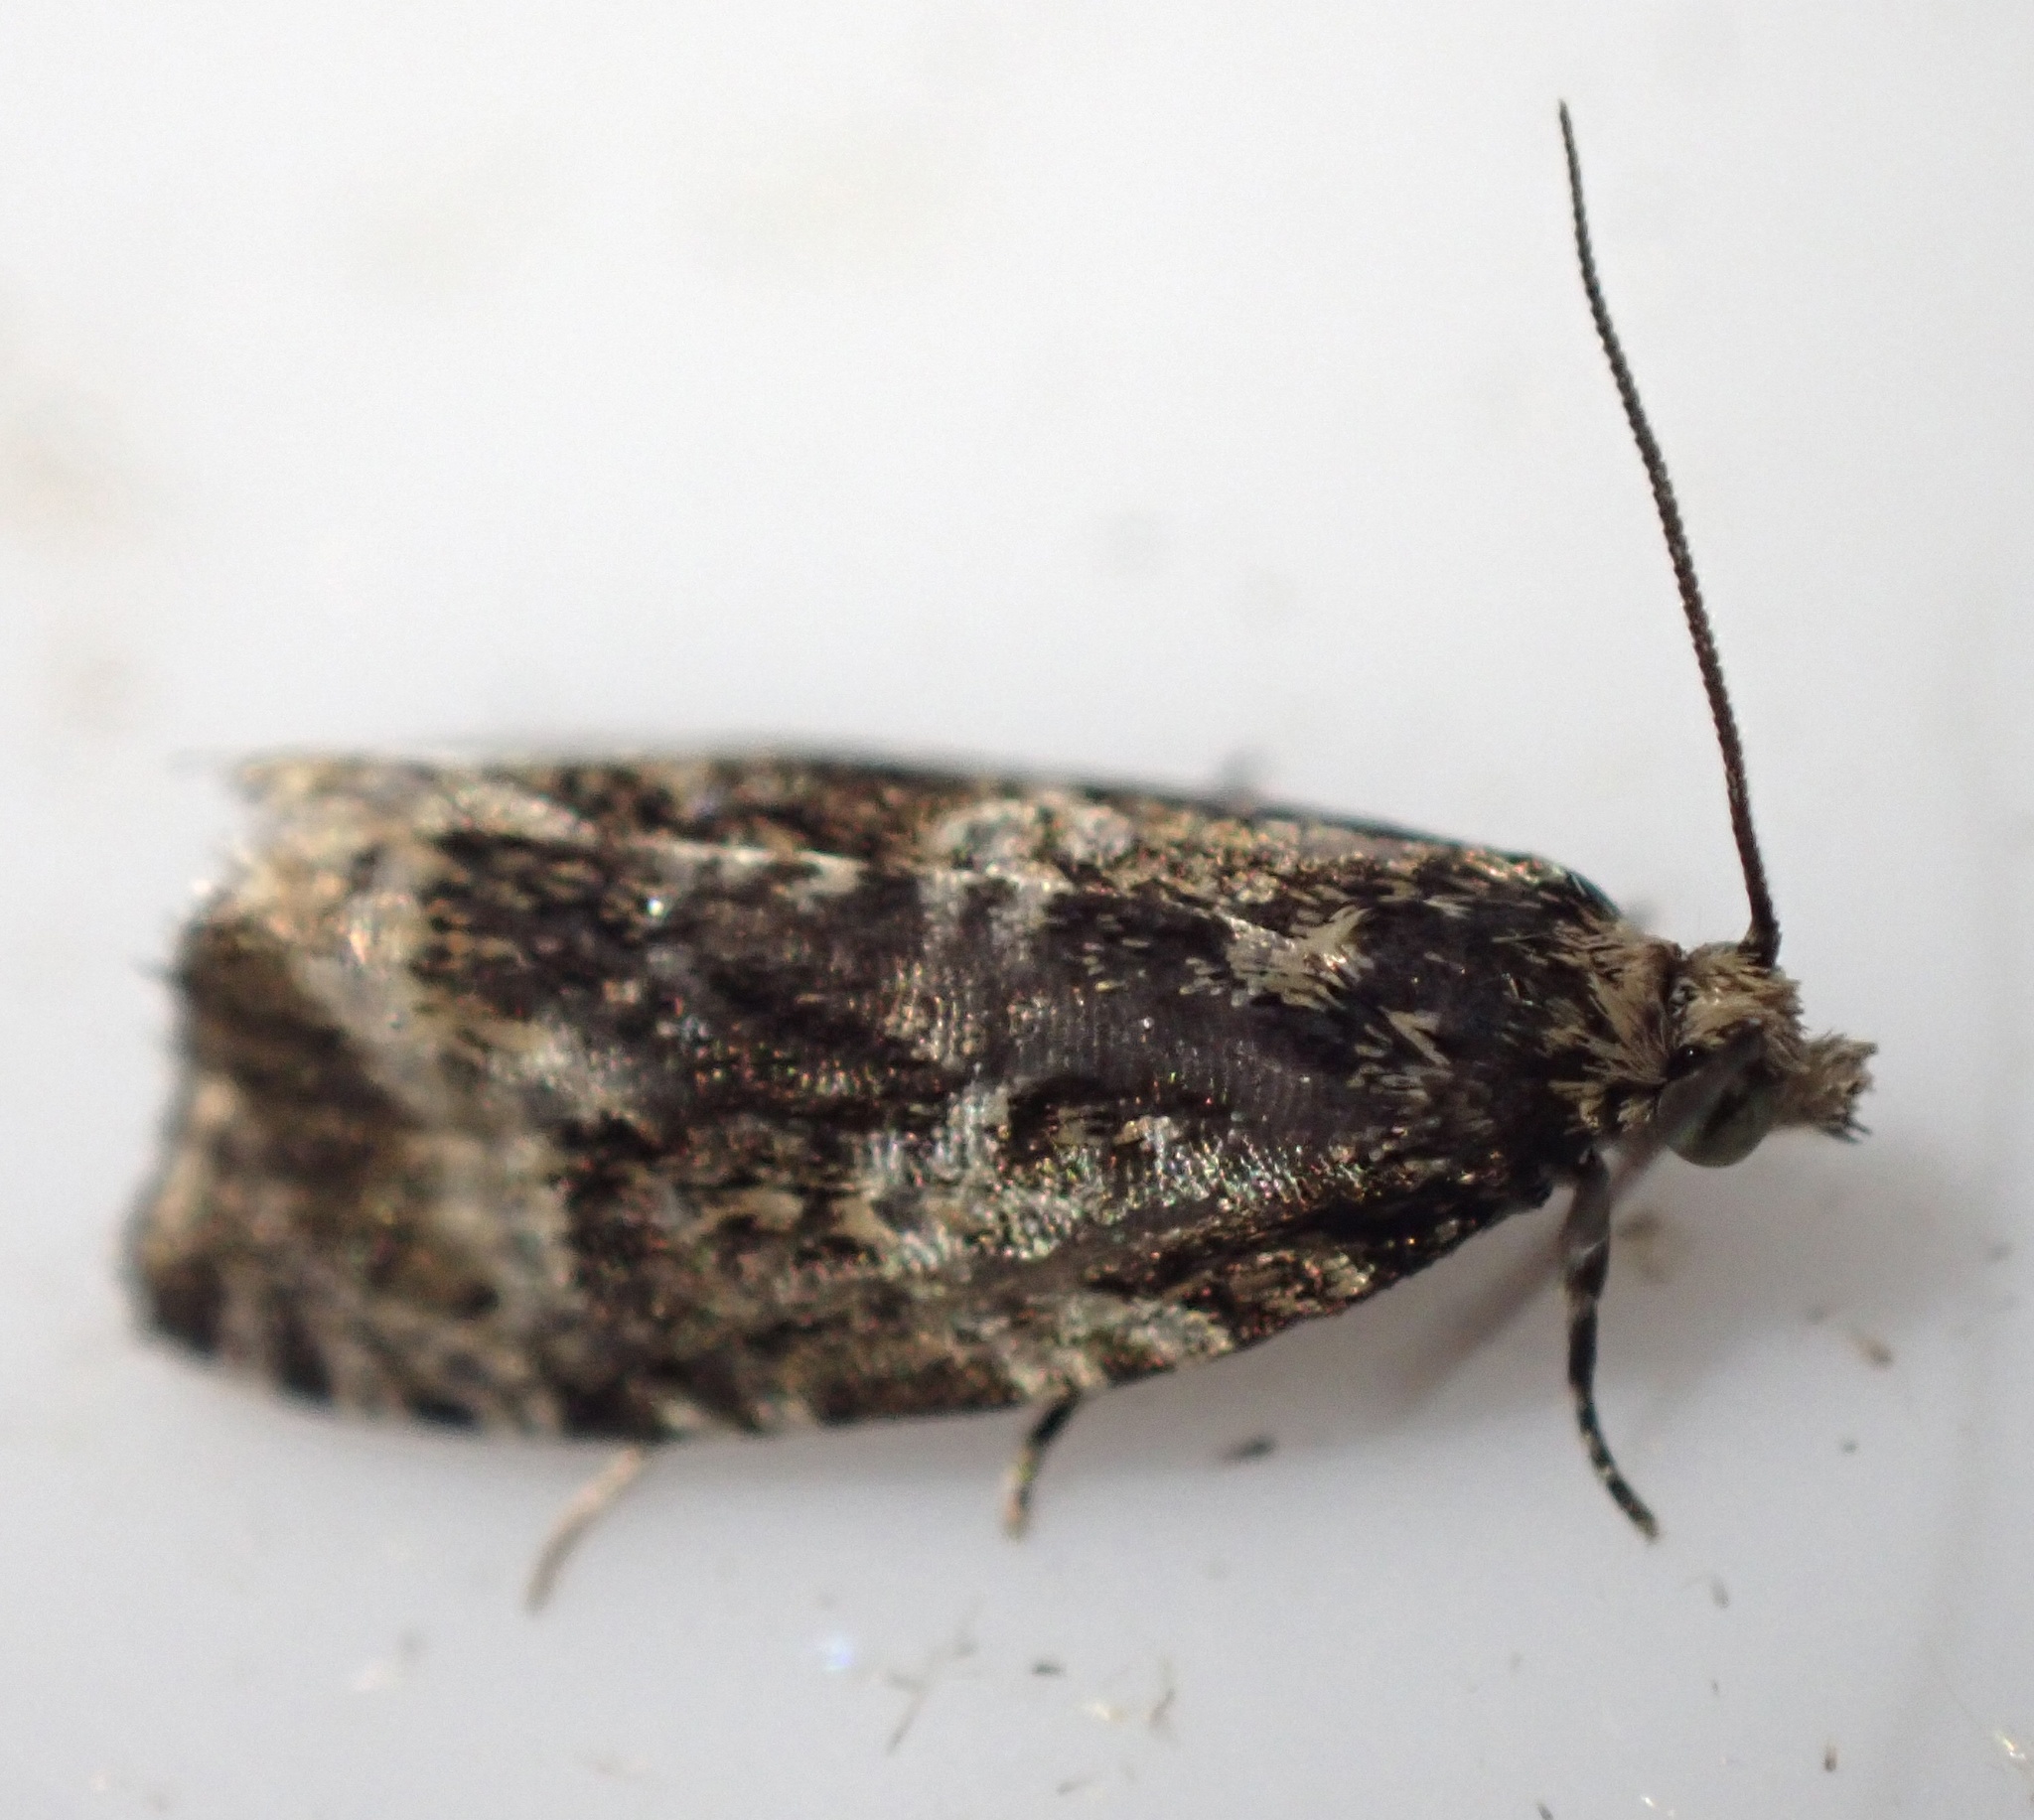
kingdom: Animalia
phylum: Arthropoda
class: Insecta
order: Lepidoptera
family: Tortricidae
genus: Syricoris
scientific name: Syricoris lacunana
